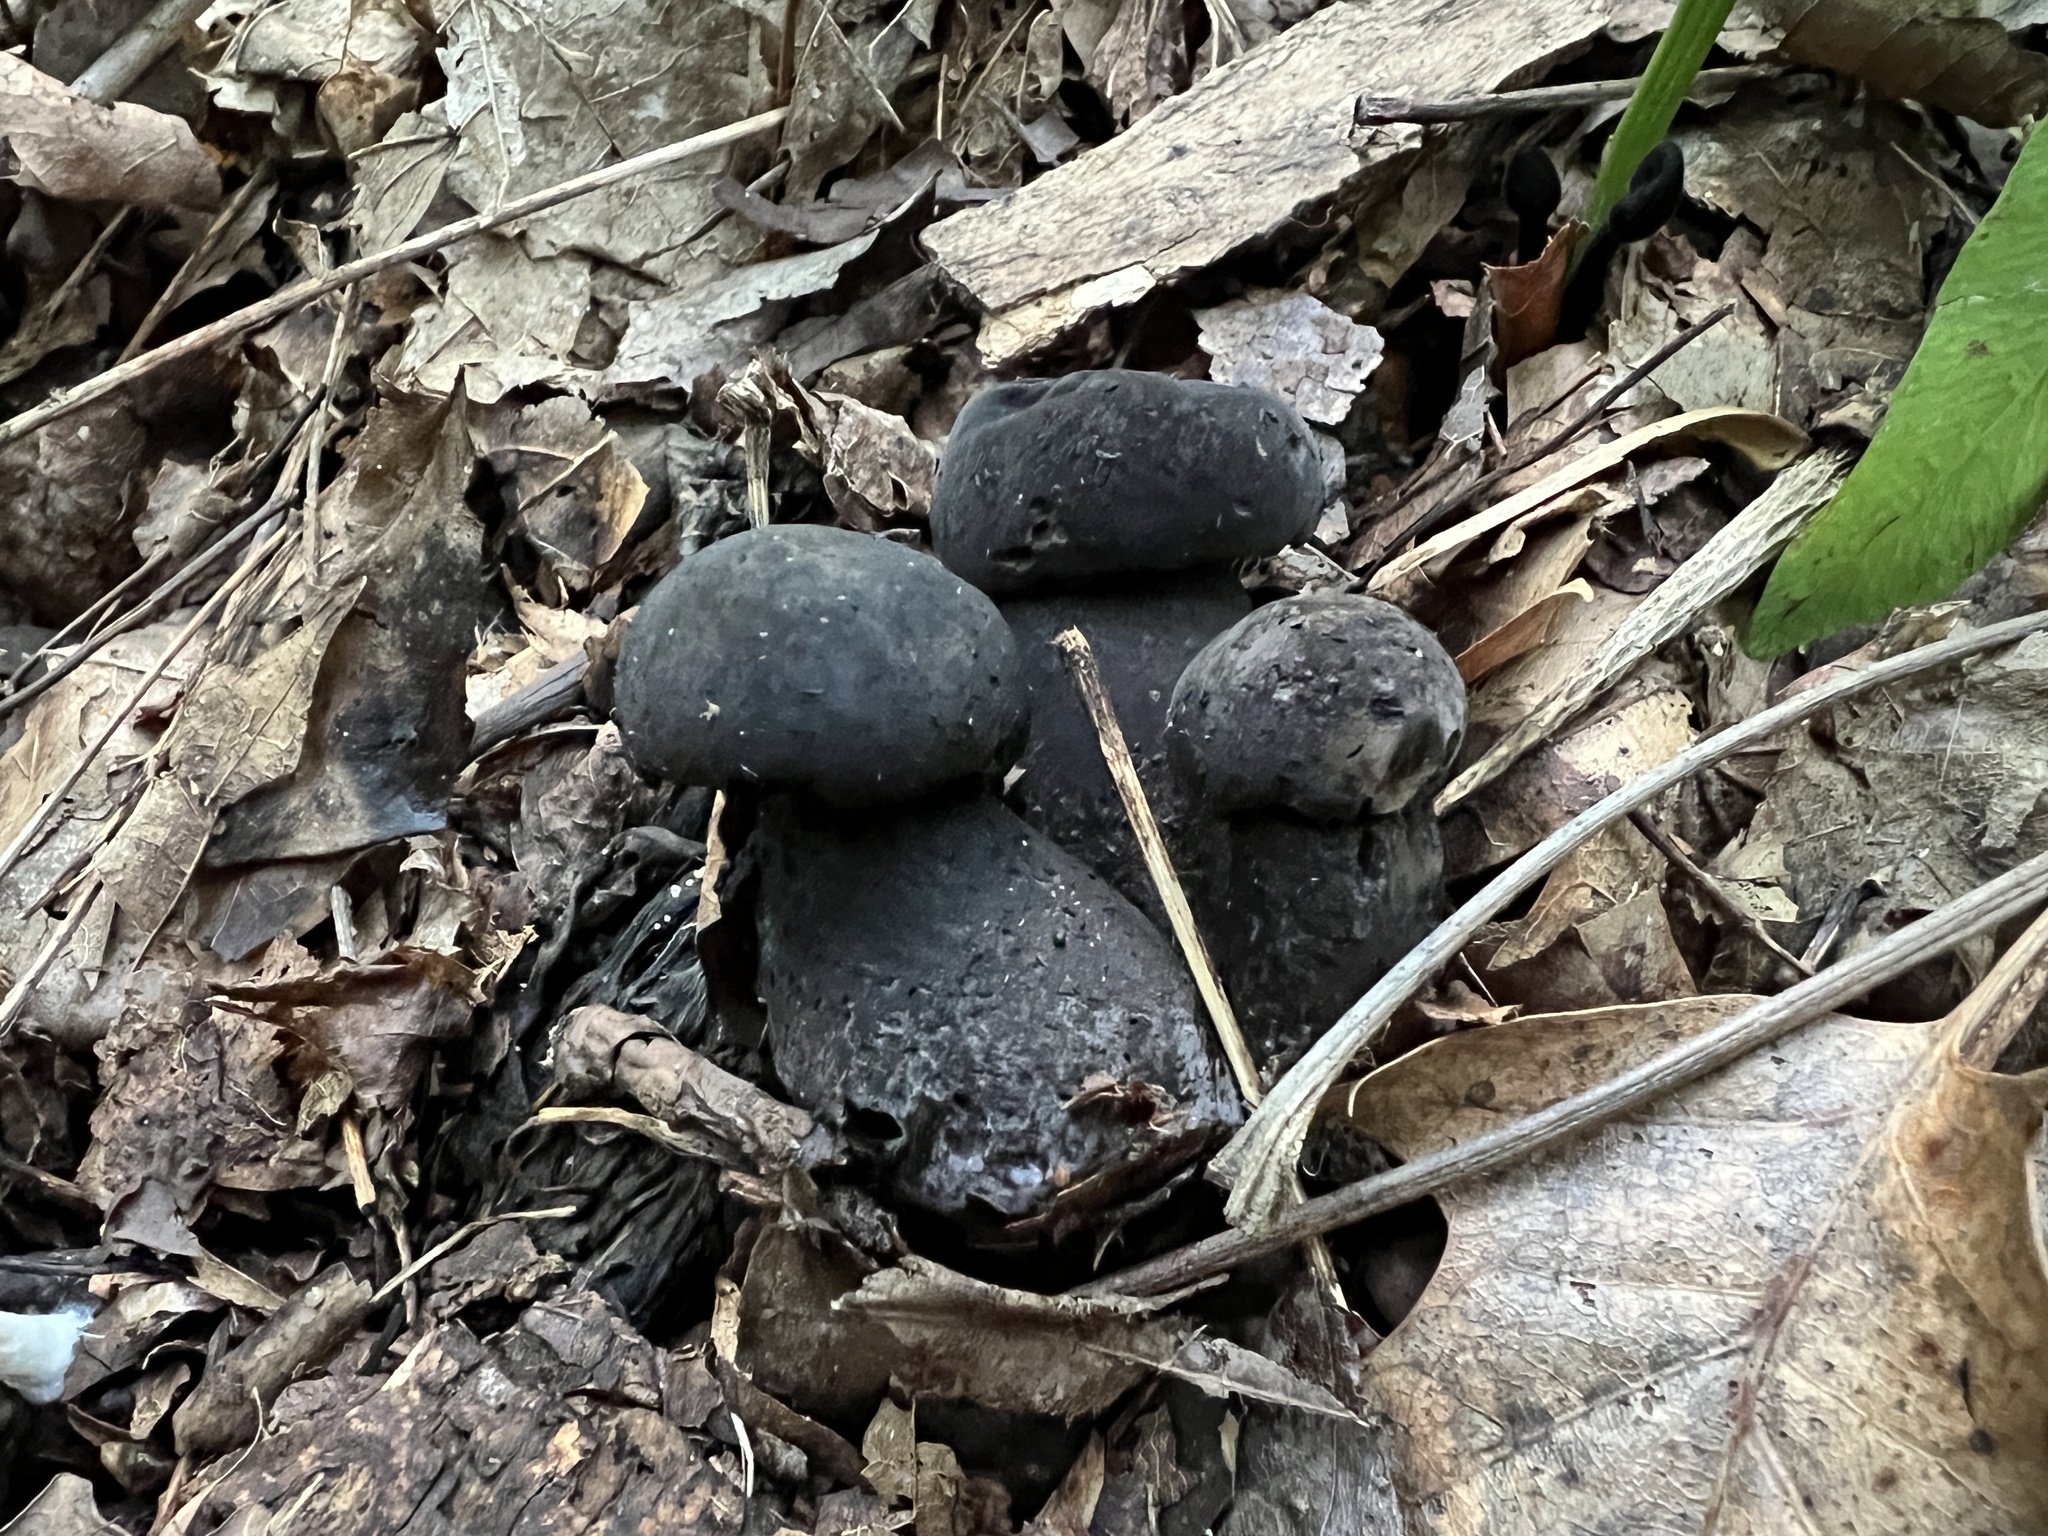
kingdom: Fungi
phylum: Basidiomycota
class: Agaricomycetes
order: Boletales
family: Boletaceae
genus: Tylopilus
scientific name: Tylopilus alboater
